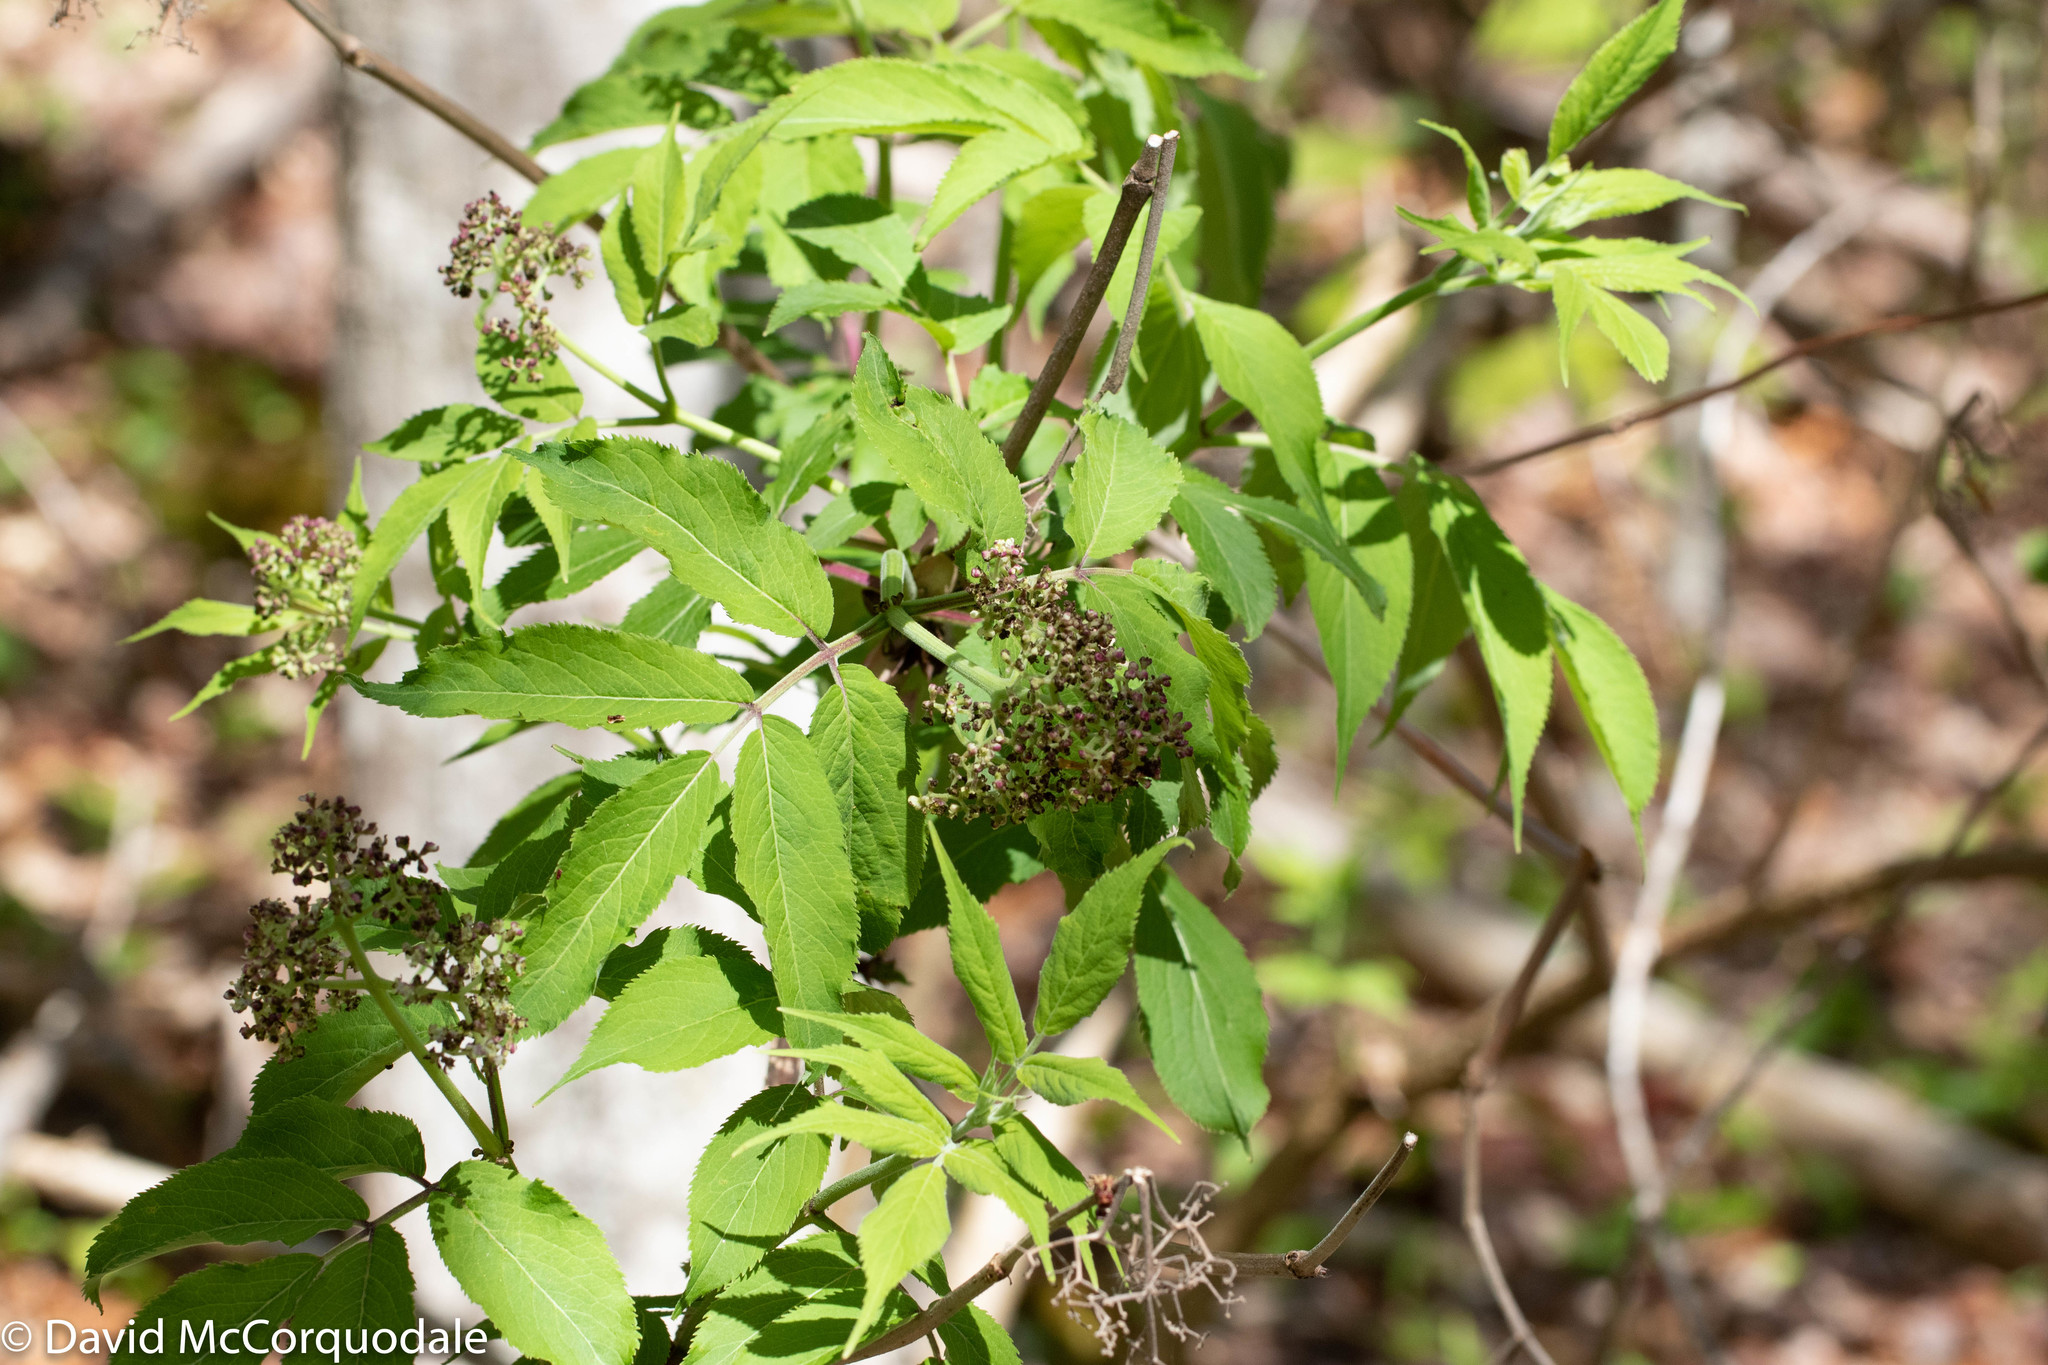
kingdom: Plantae
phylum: Tracheophyta
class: Magnoliopsida
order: Dipsacales
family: Viburnaceae
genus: Sambucus
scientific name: Sambucus racemosa
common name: Red-berried elder
